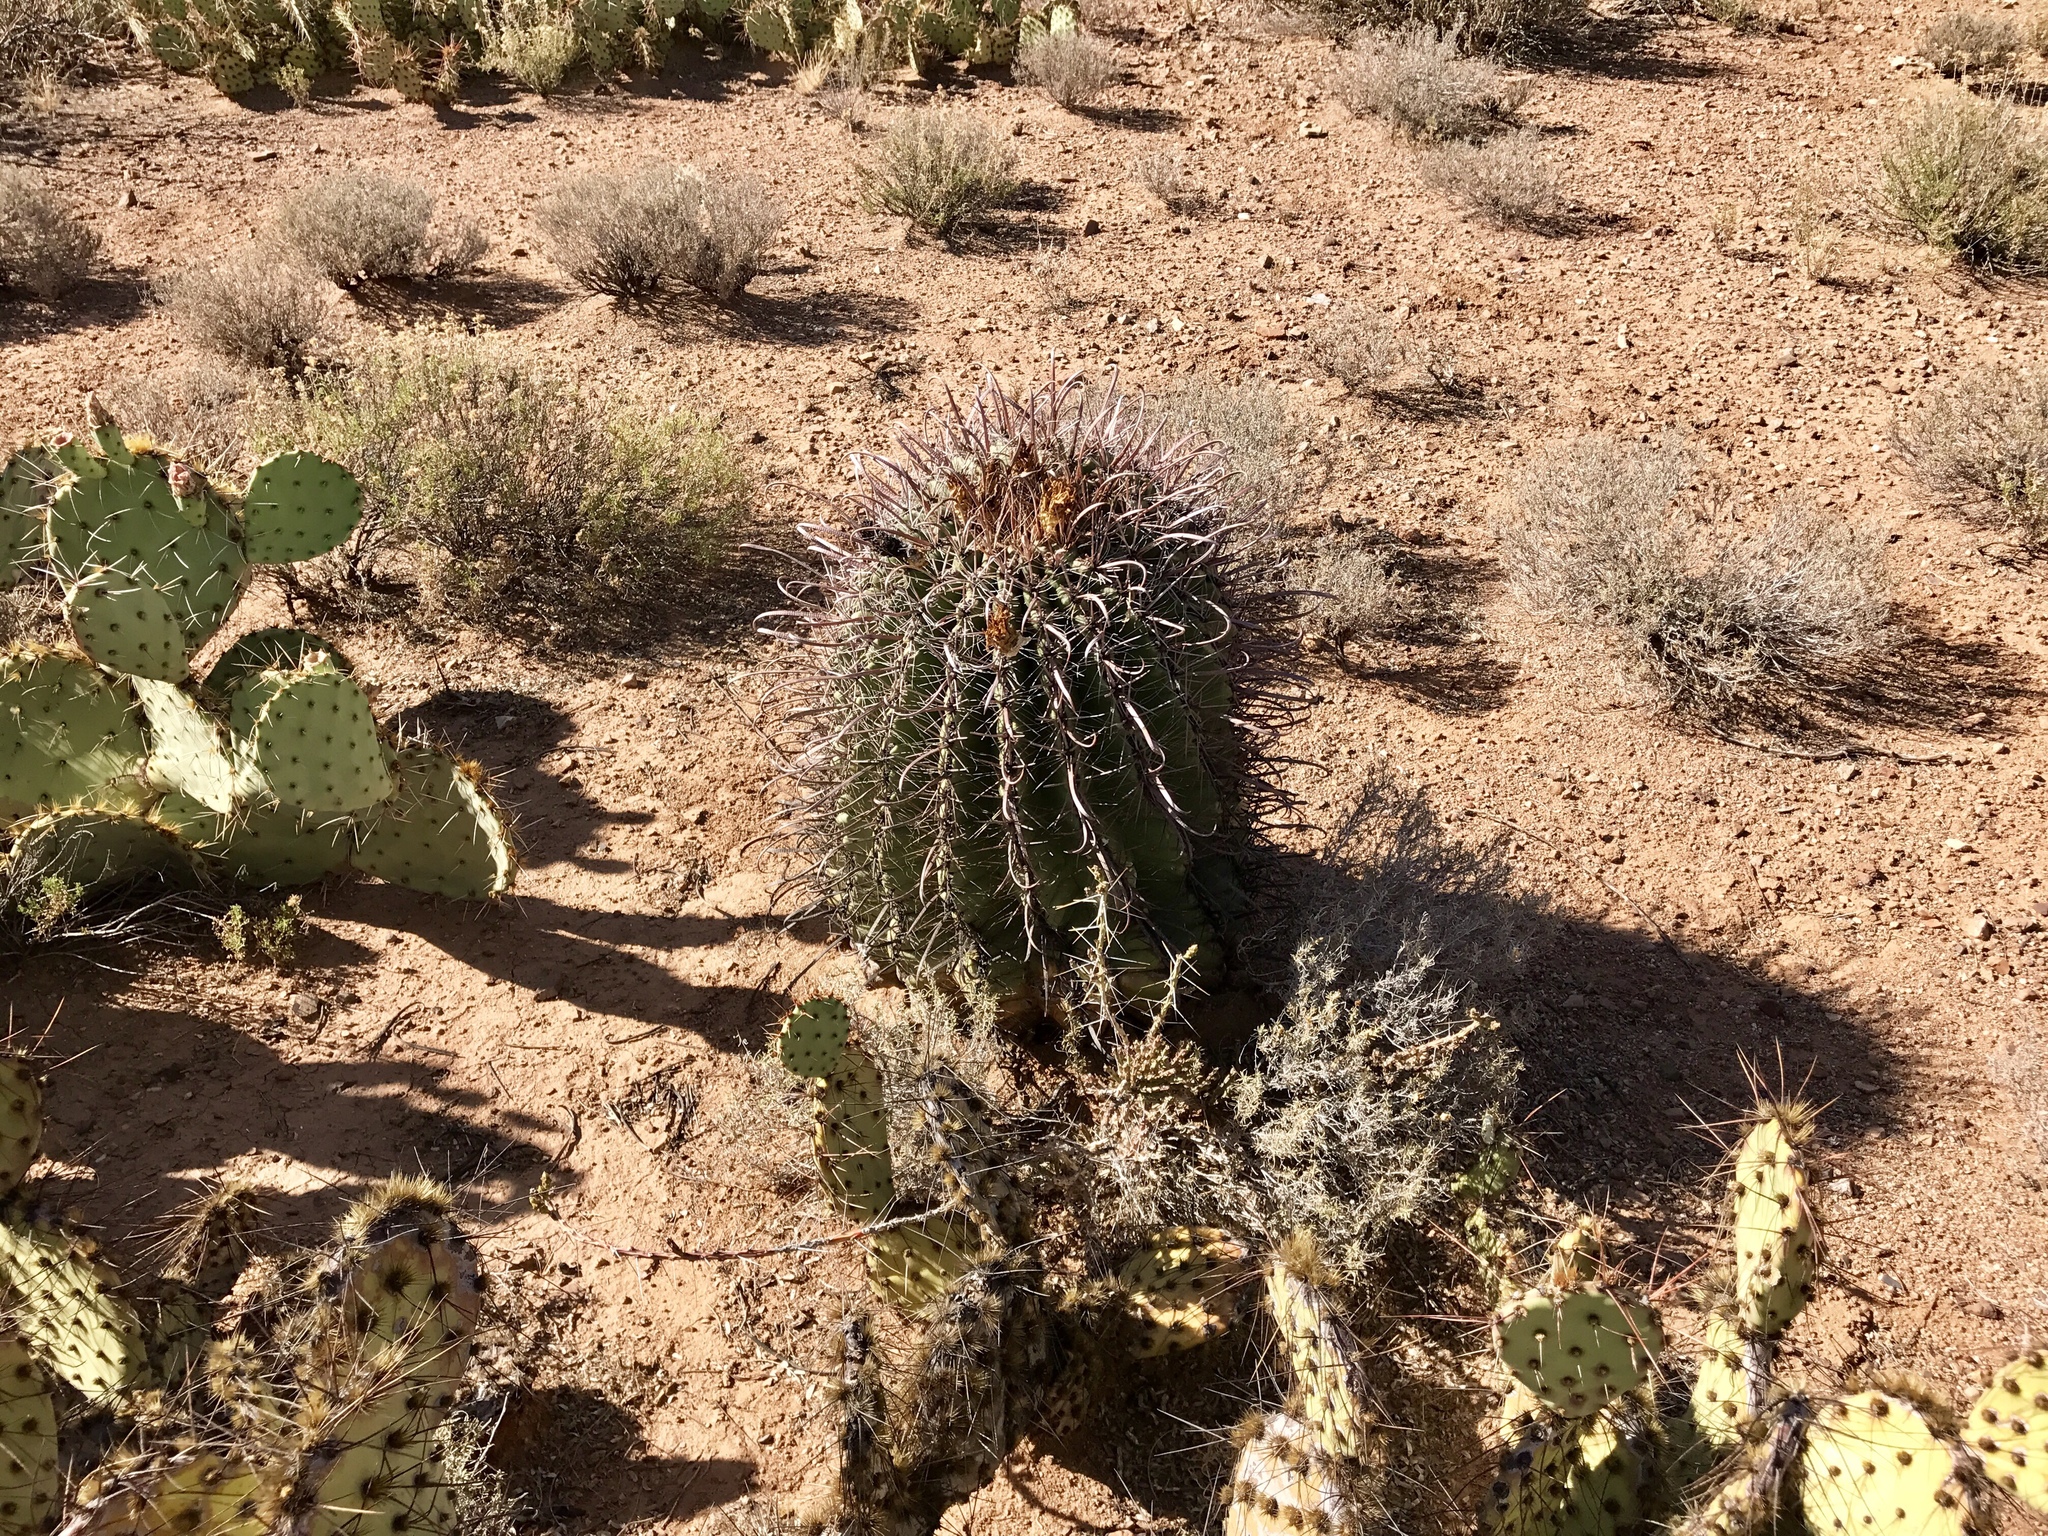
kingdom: Plantae
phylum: Tracheophyta
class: Magnoliopsida
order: Caryophyllales
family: Cactaceae
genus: Ferocactus
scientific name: Ferocactus wislizeni
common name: Candy barrel cactus
